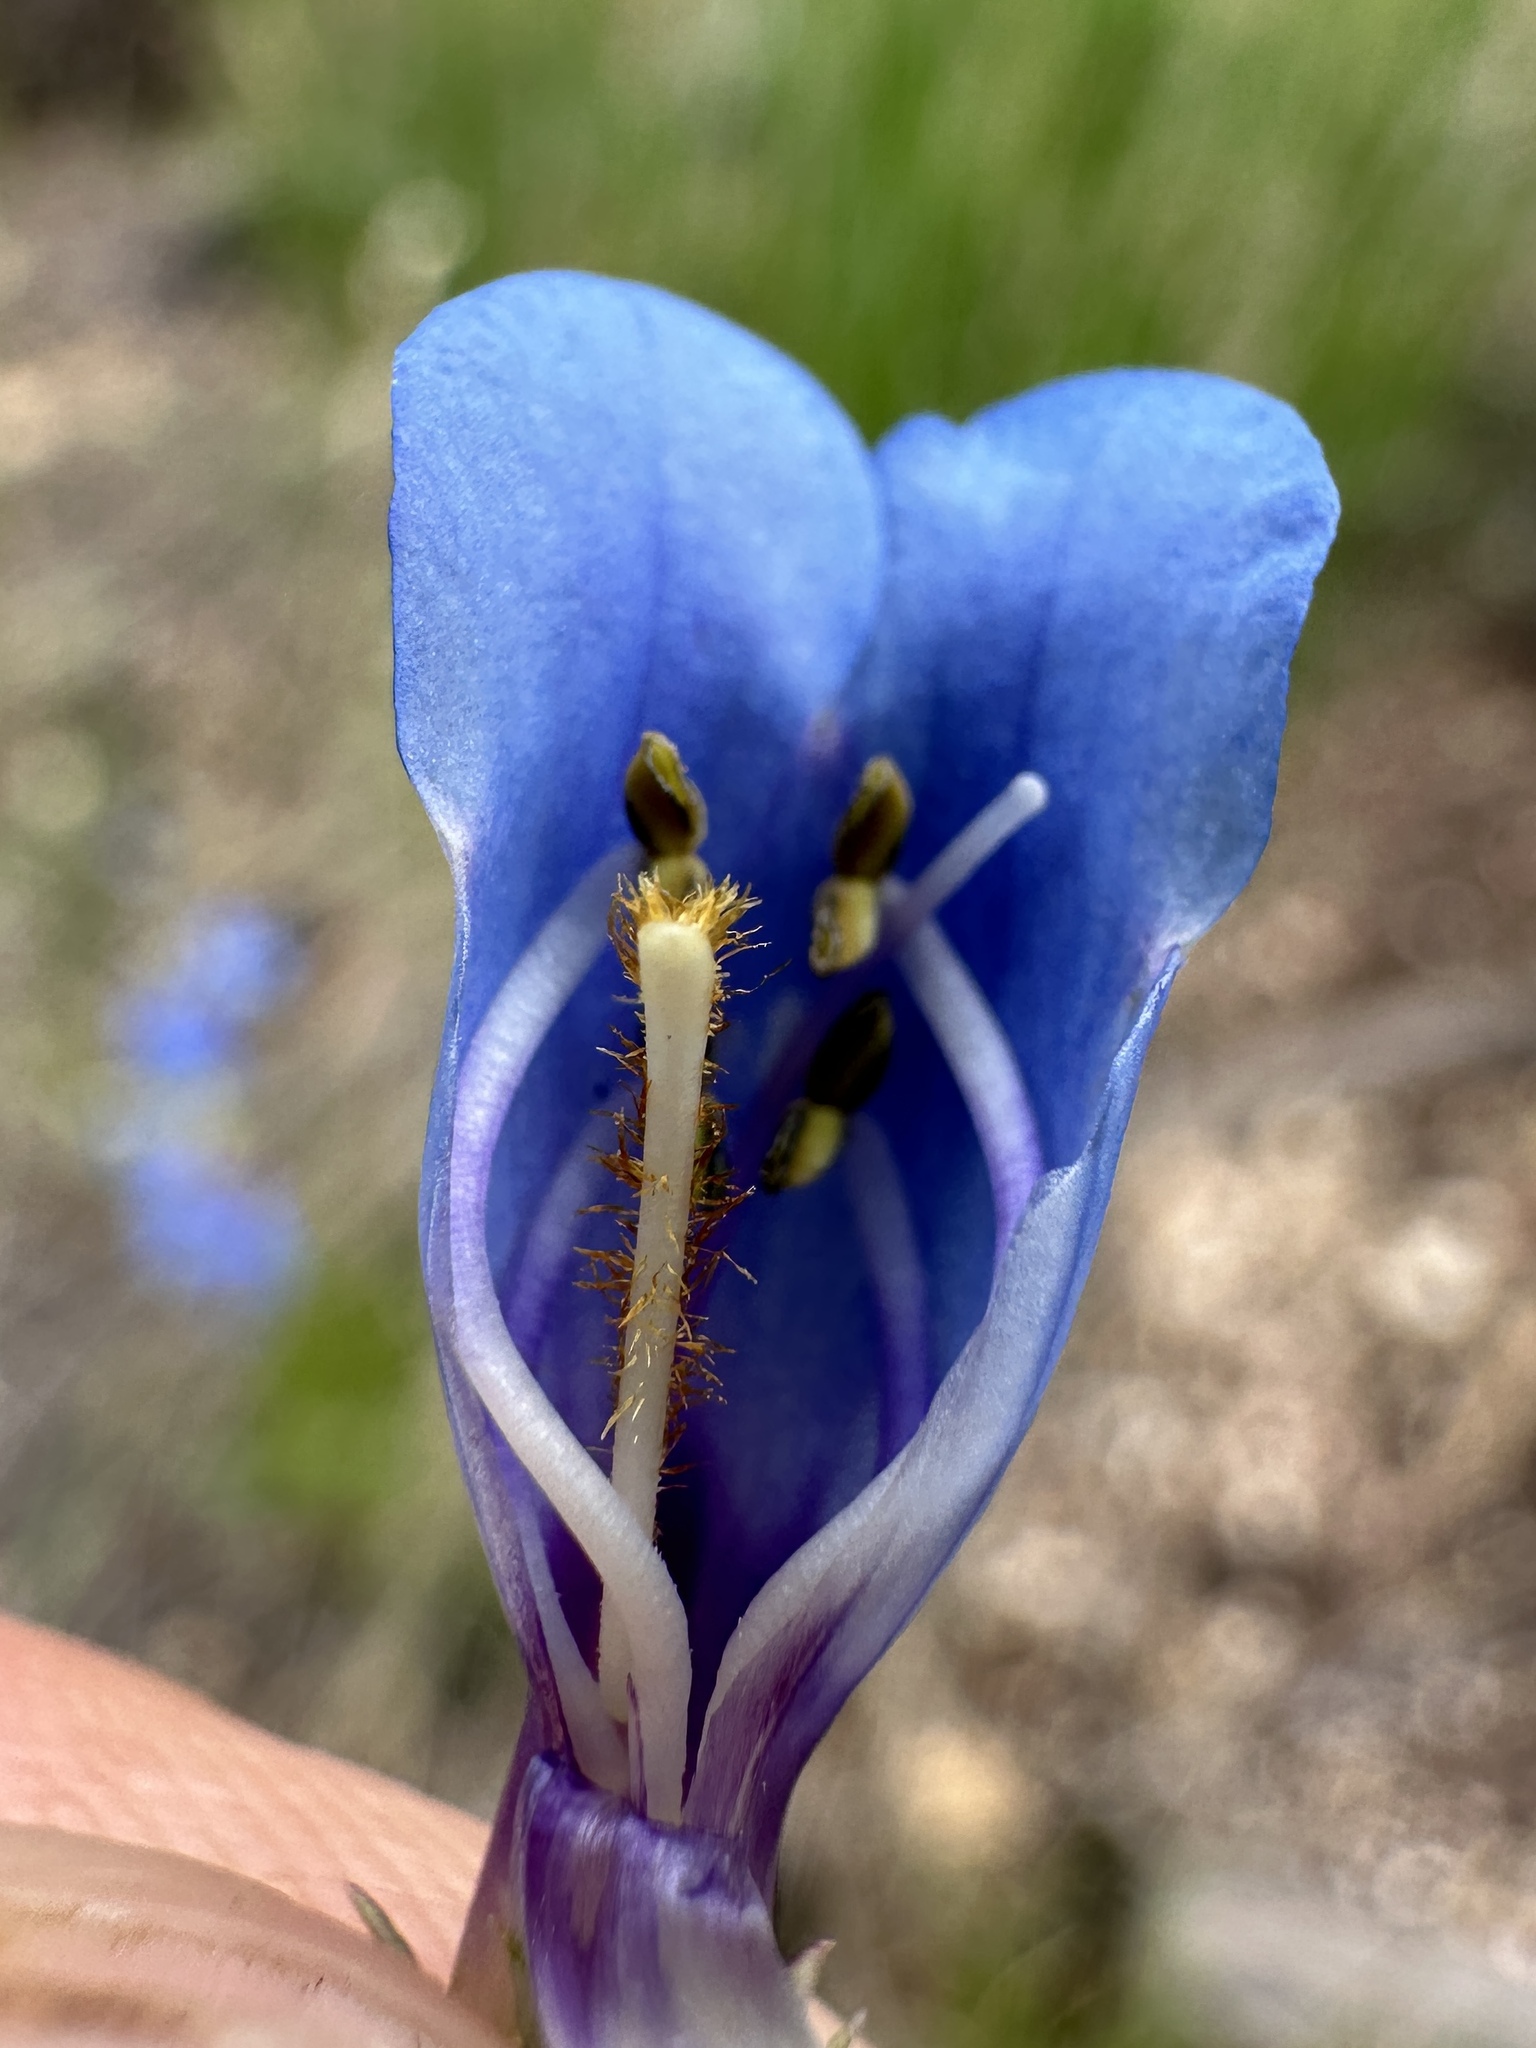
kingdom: Plantae
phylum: Tracheophyta
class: Magnoliopsida
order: Lamiales
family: Plantaginaceae
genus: Penstemon
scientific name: Penstemon tidestromii
